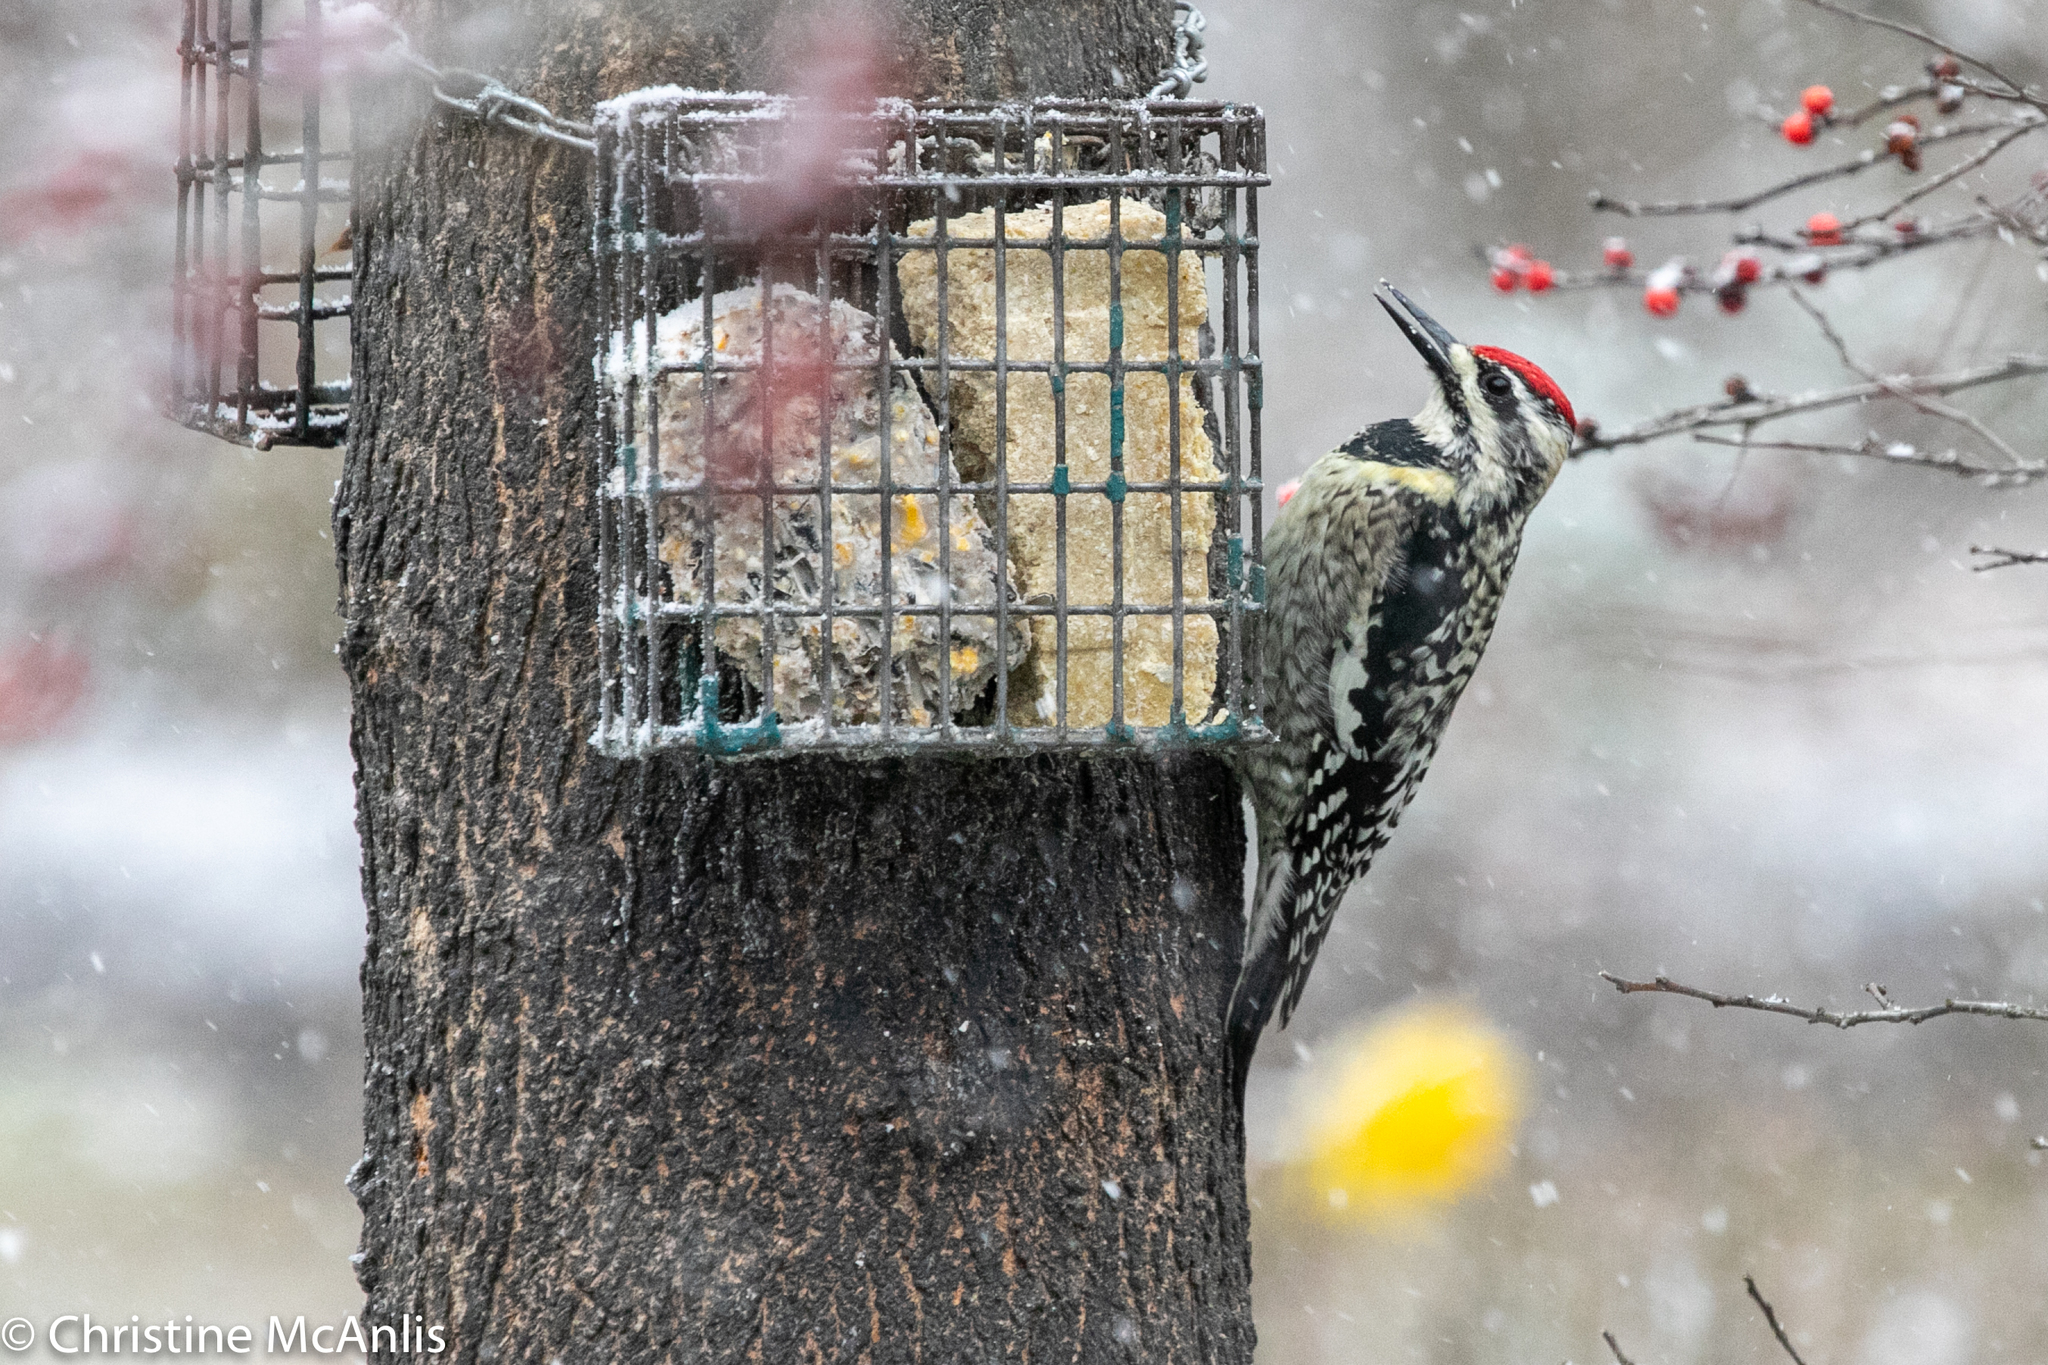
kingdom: Animalia
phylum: Chordata
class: Aves
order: Piciformes
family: Picidae
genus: Sphyrapicus
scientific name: Sphyrapicus varius
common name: Yellow-bellied sapsucker
